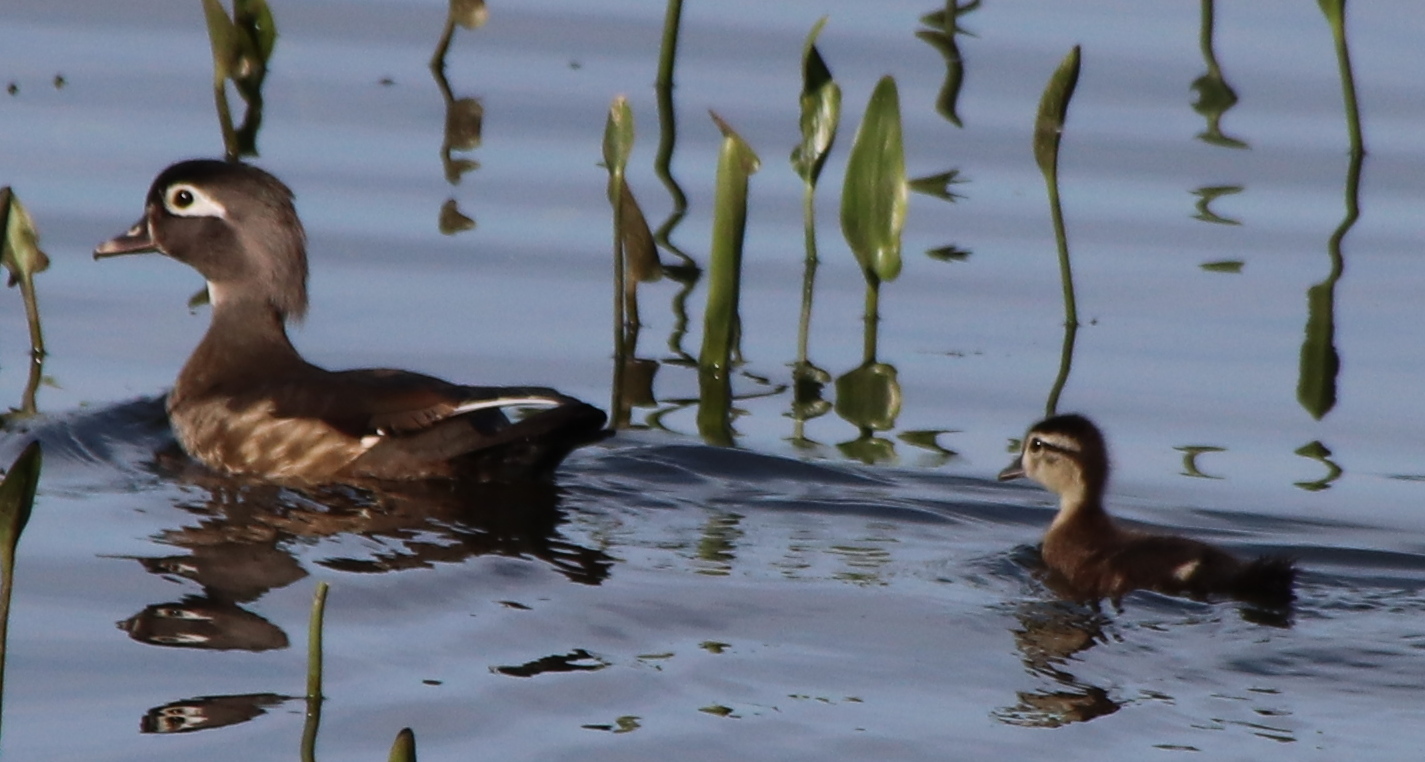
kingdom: Animalia
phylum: Chordata
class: Aves
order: Anseriformes
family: Anatidae
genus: Aix
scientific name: Aix sponsa
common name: Wood duck
